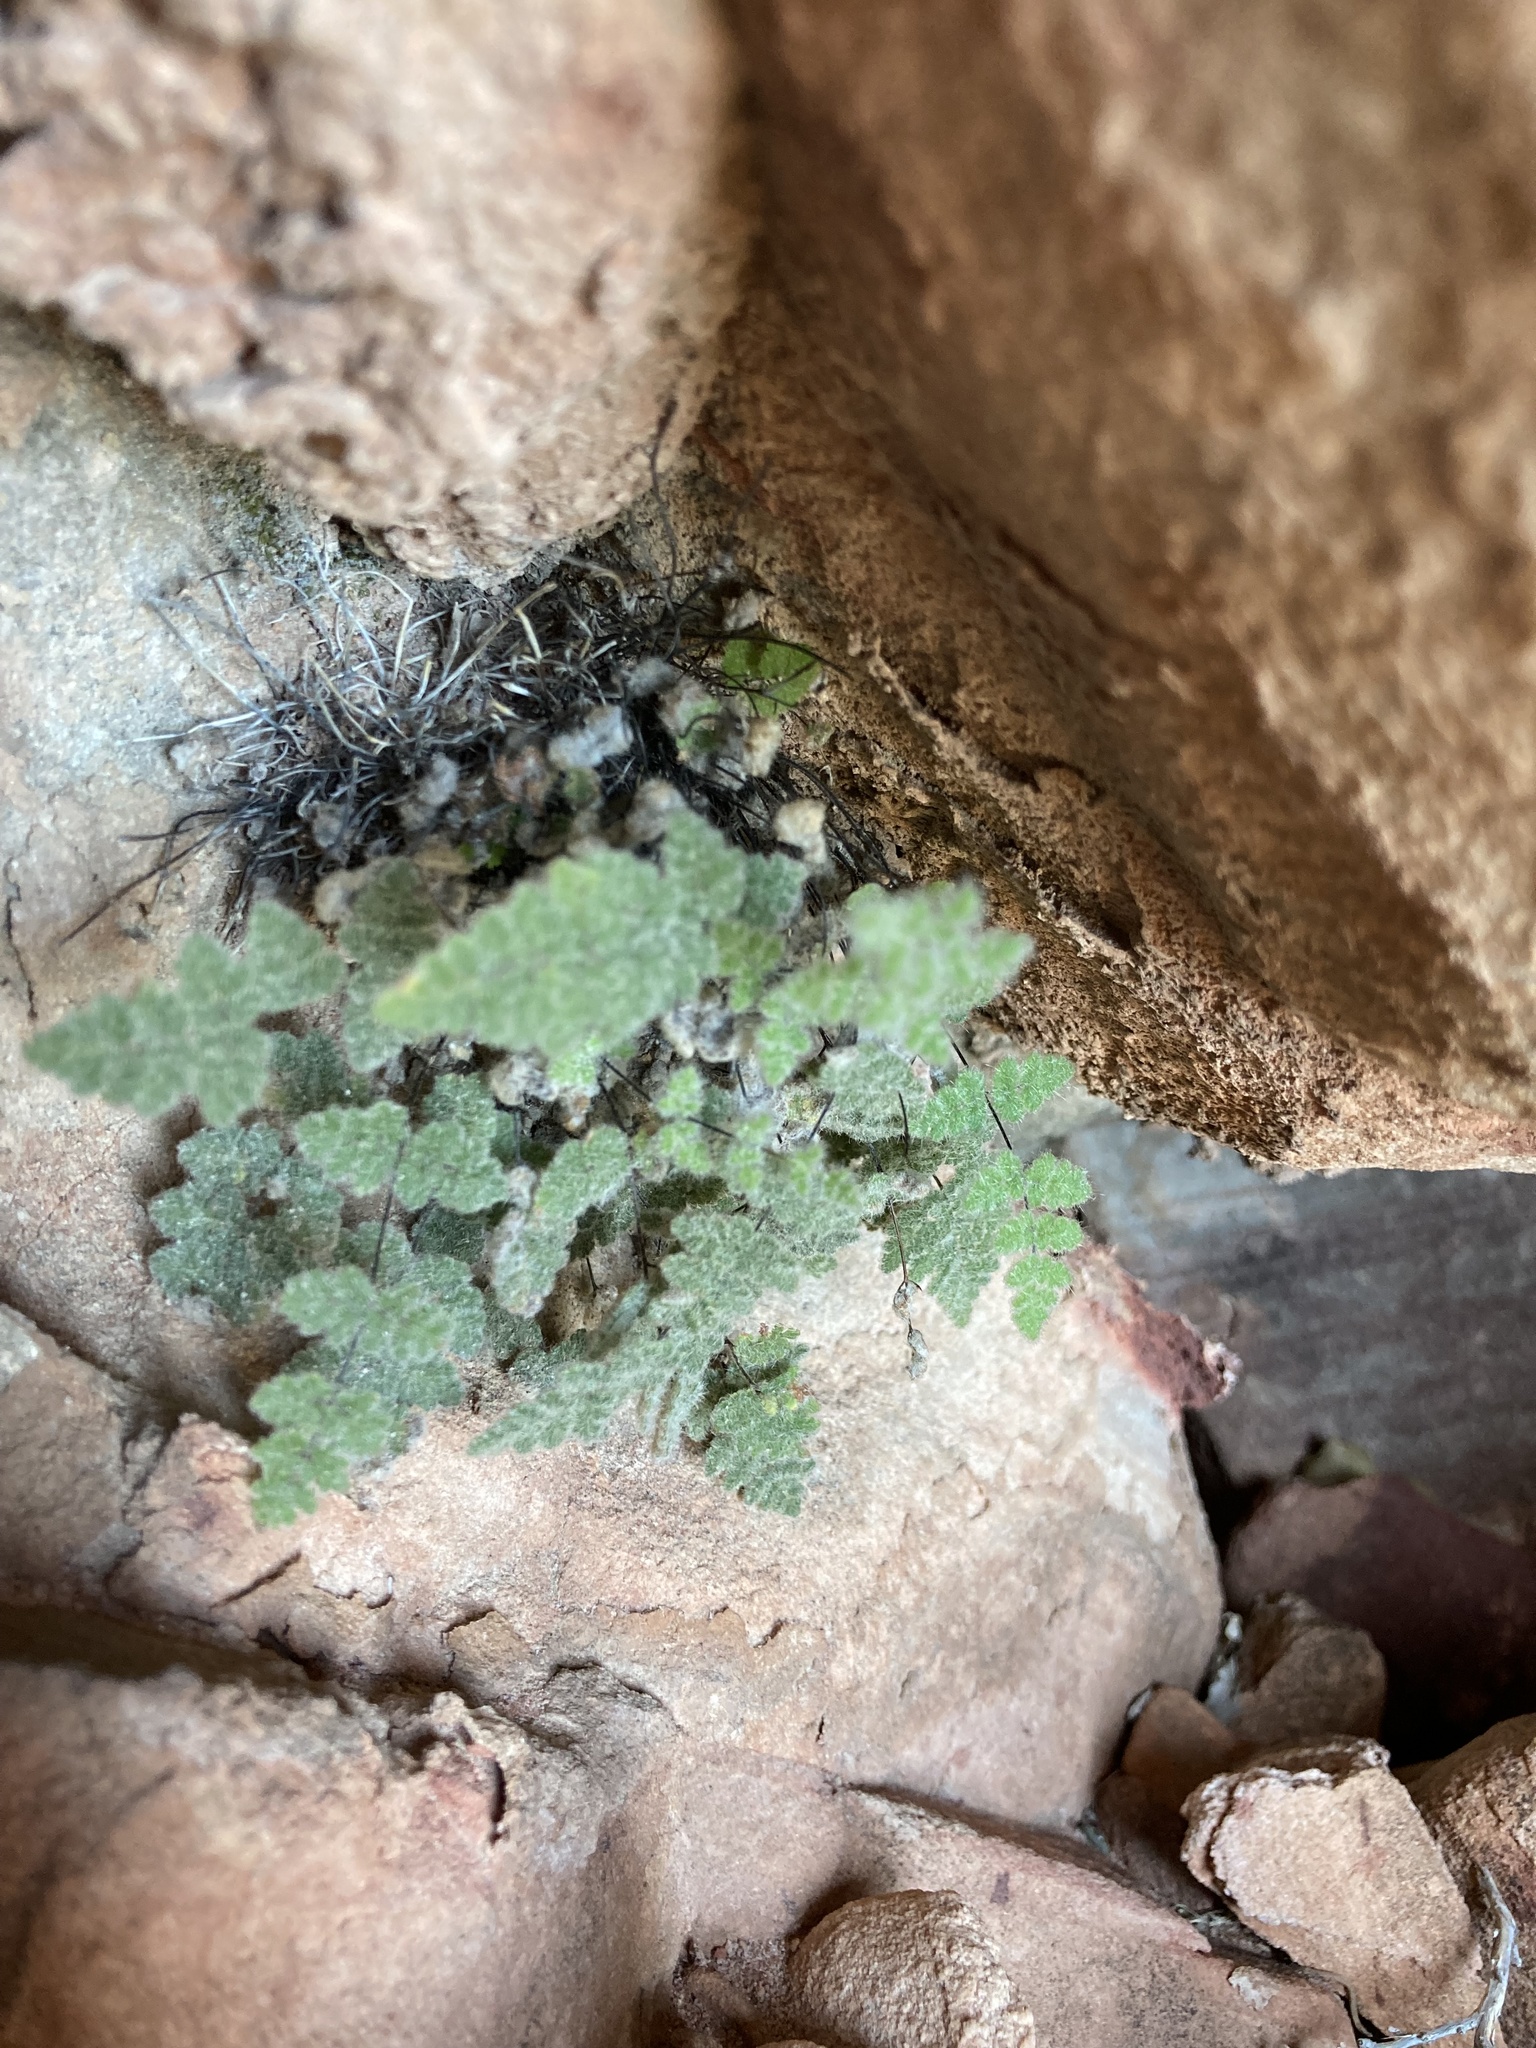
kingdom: Plantae
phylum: Tracheophyta
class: Polypodiopsida
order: Polypodiales
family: Pteridaceae
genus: Myriopteris
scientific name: Myriopteris parryi
